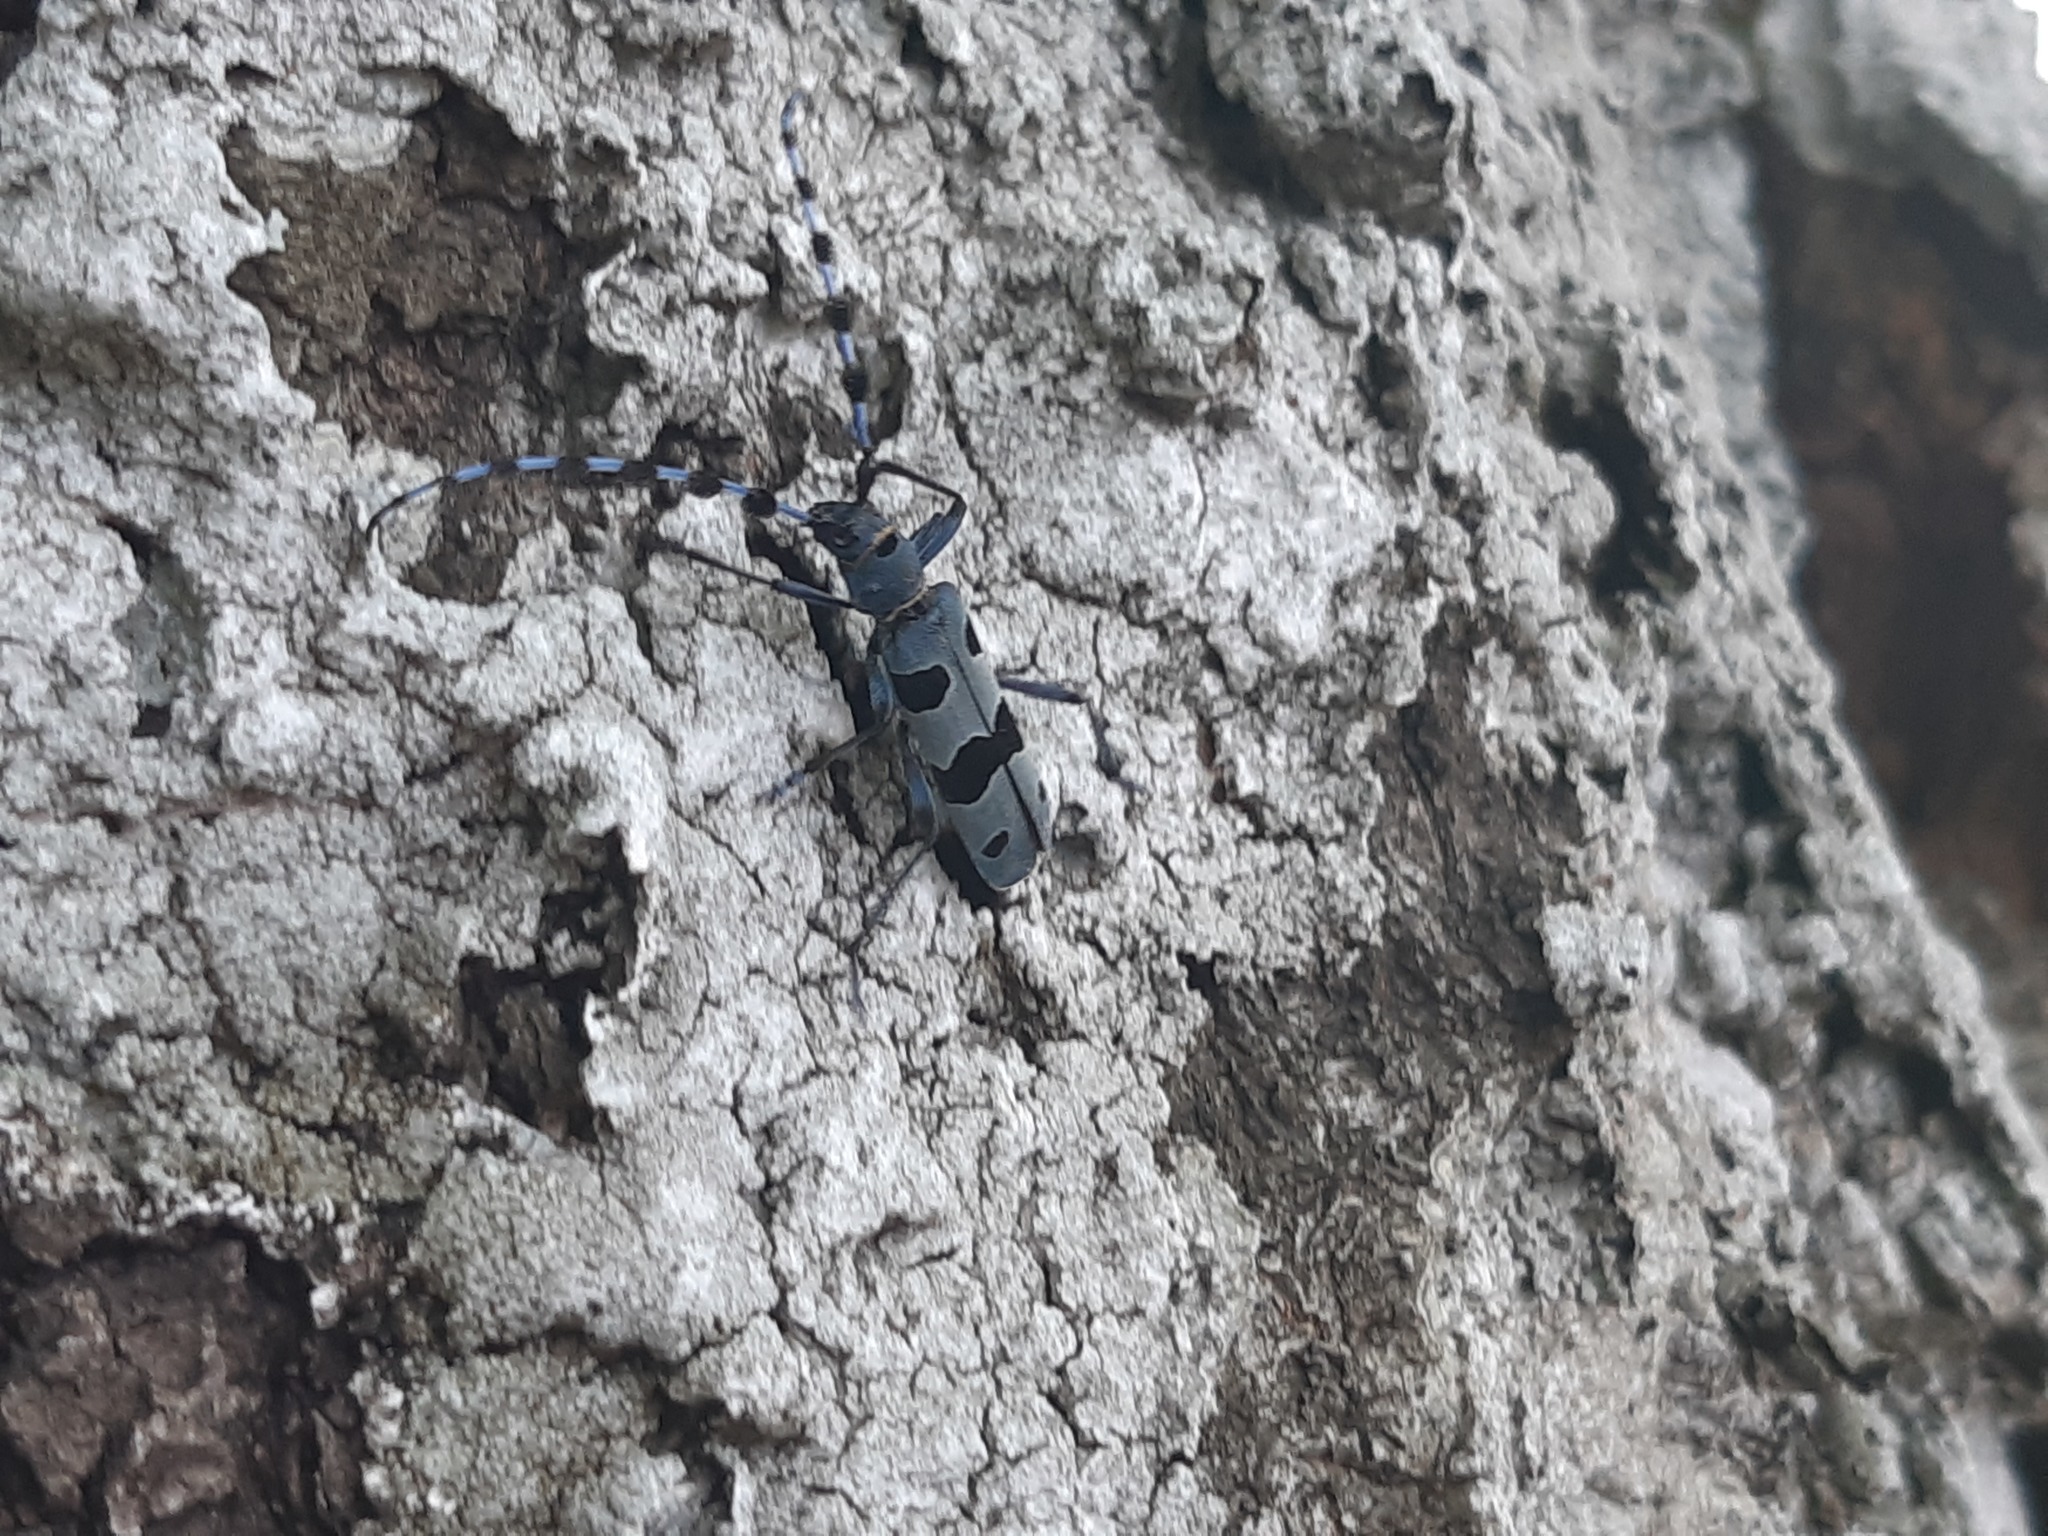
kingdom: Animalia
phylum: Arthropoda
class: Insecta
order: Coleoptera
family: Cerambycidae
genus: Rosalia
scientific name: Rosalia alpina
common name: Rosalia longicorn
